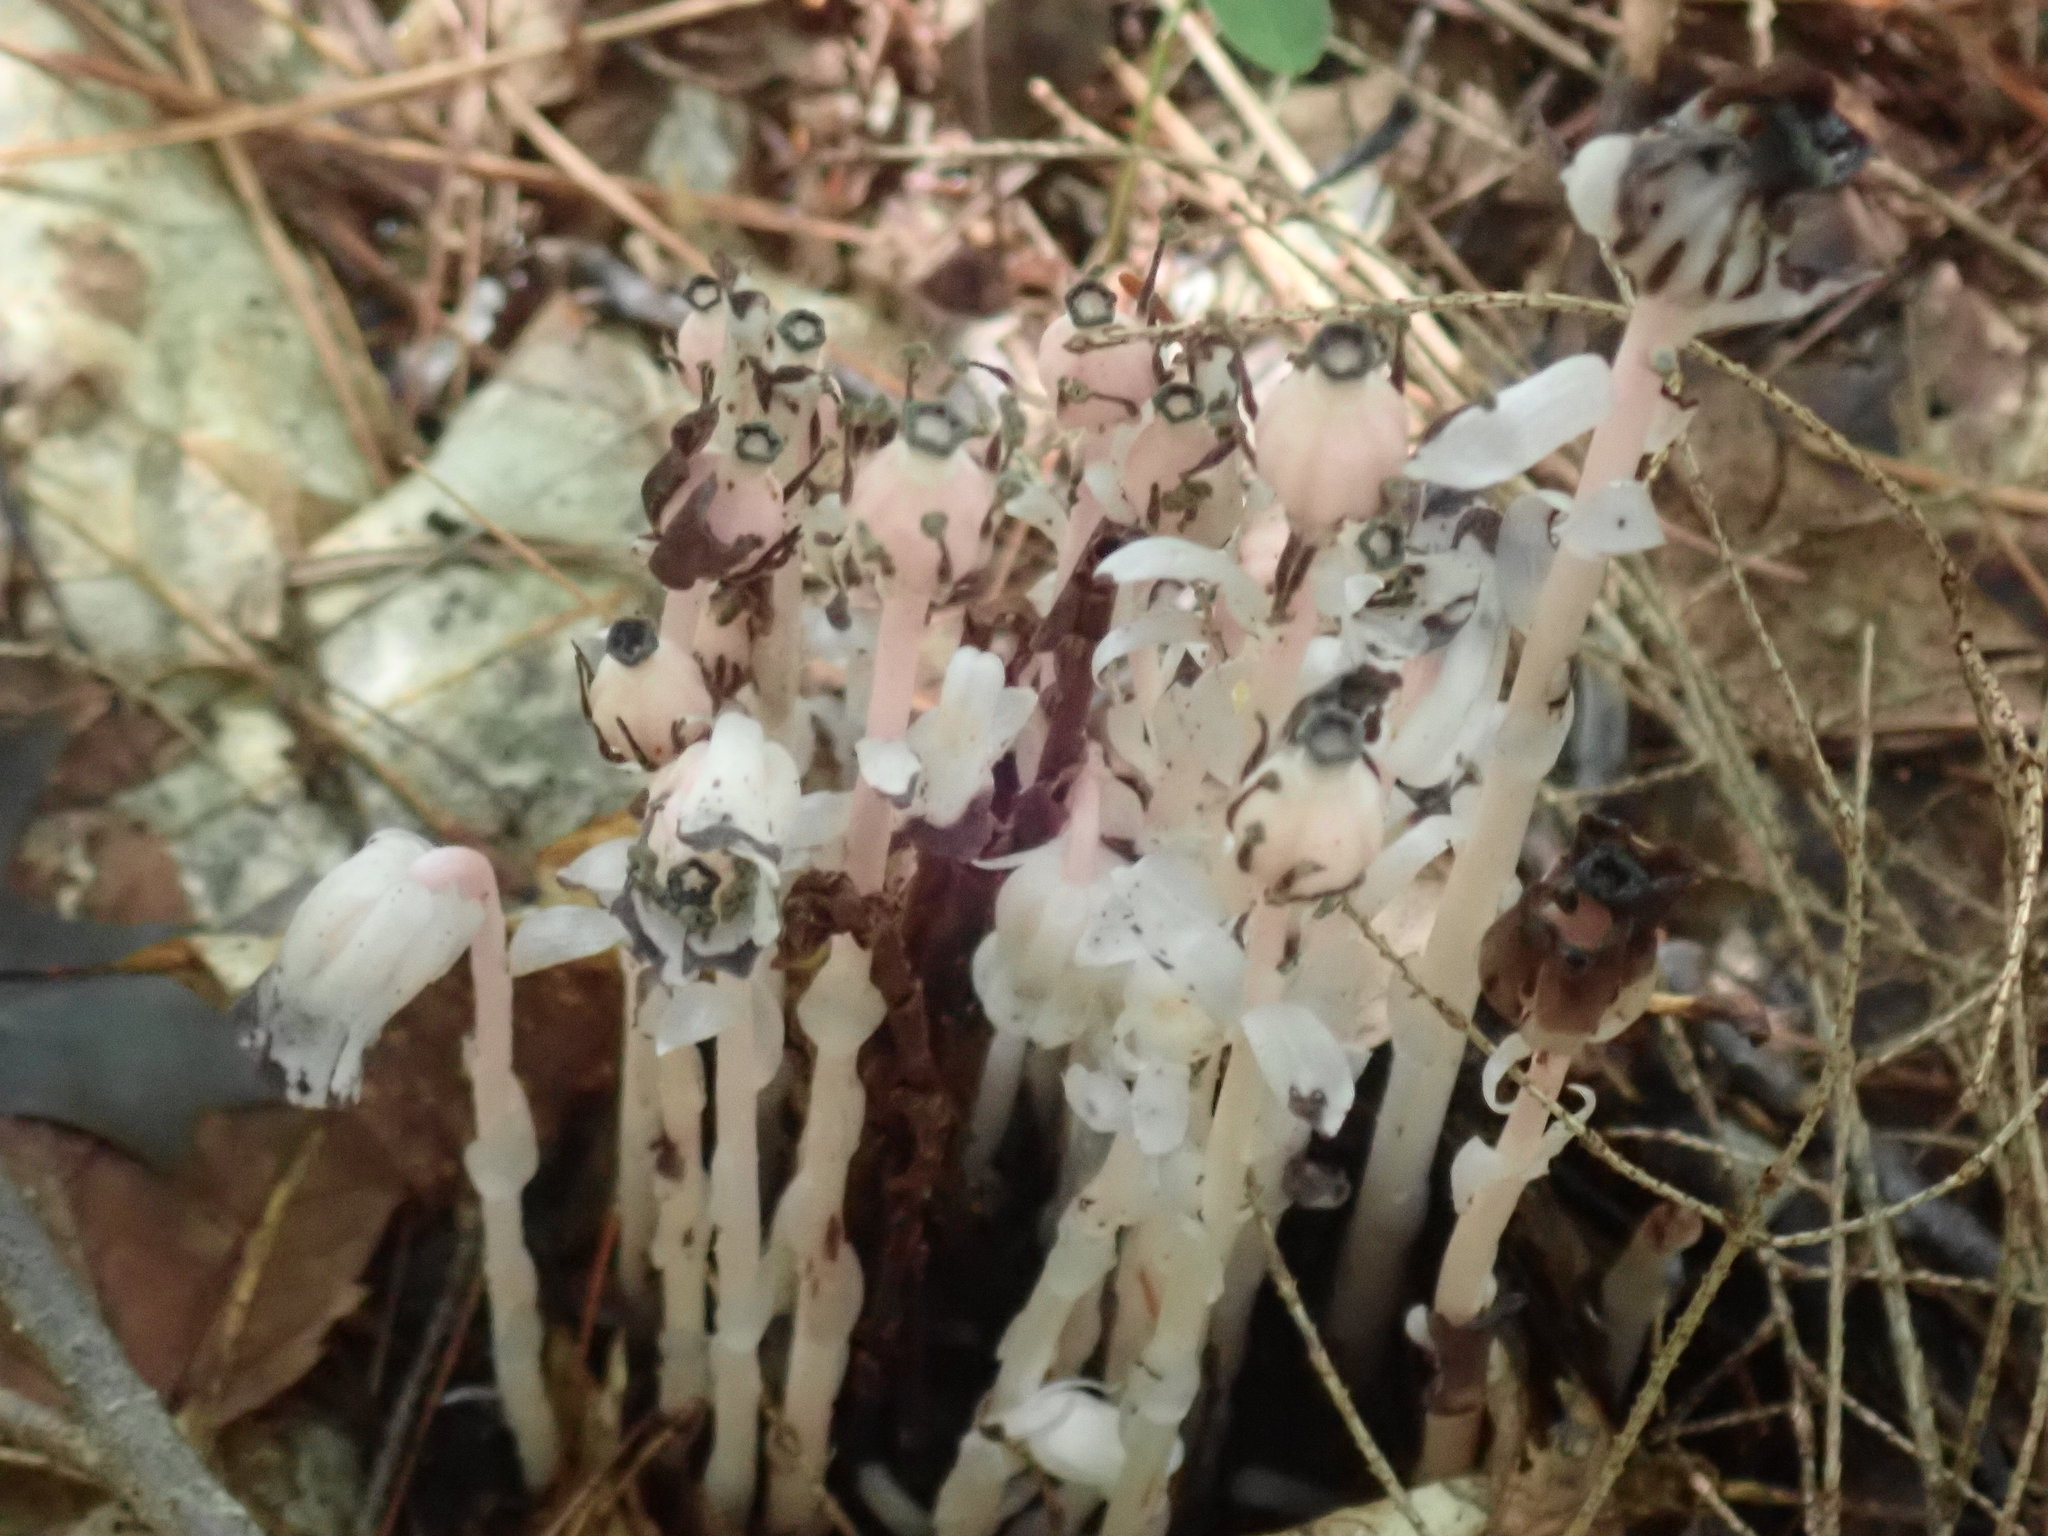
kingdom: Plantae
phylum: Tracheophyta
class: Magnoliopsida
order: Ericales
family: Ericaceae
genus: Monotropa
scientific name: Monotropa uniflora
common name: Convulsion root
